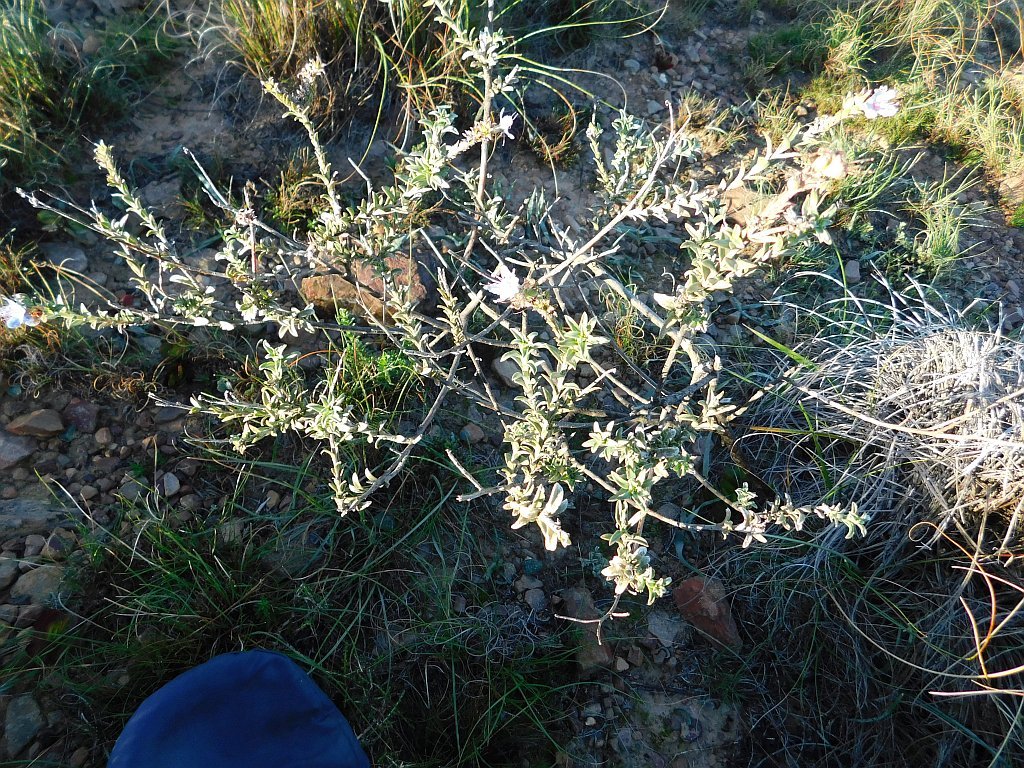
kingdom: Plantae
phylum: Tracheophyta
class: Magnoliopsida
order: Boraginales
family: Boraginaceae
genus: Lobostemon
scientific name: Lobostemon echioides
